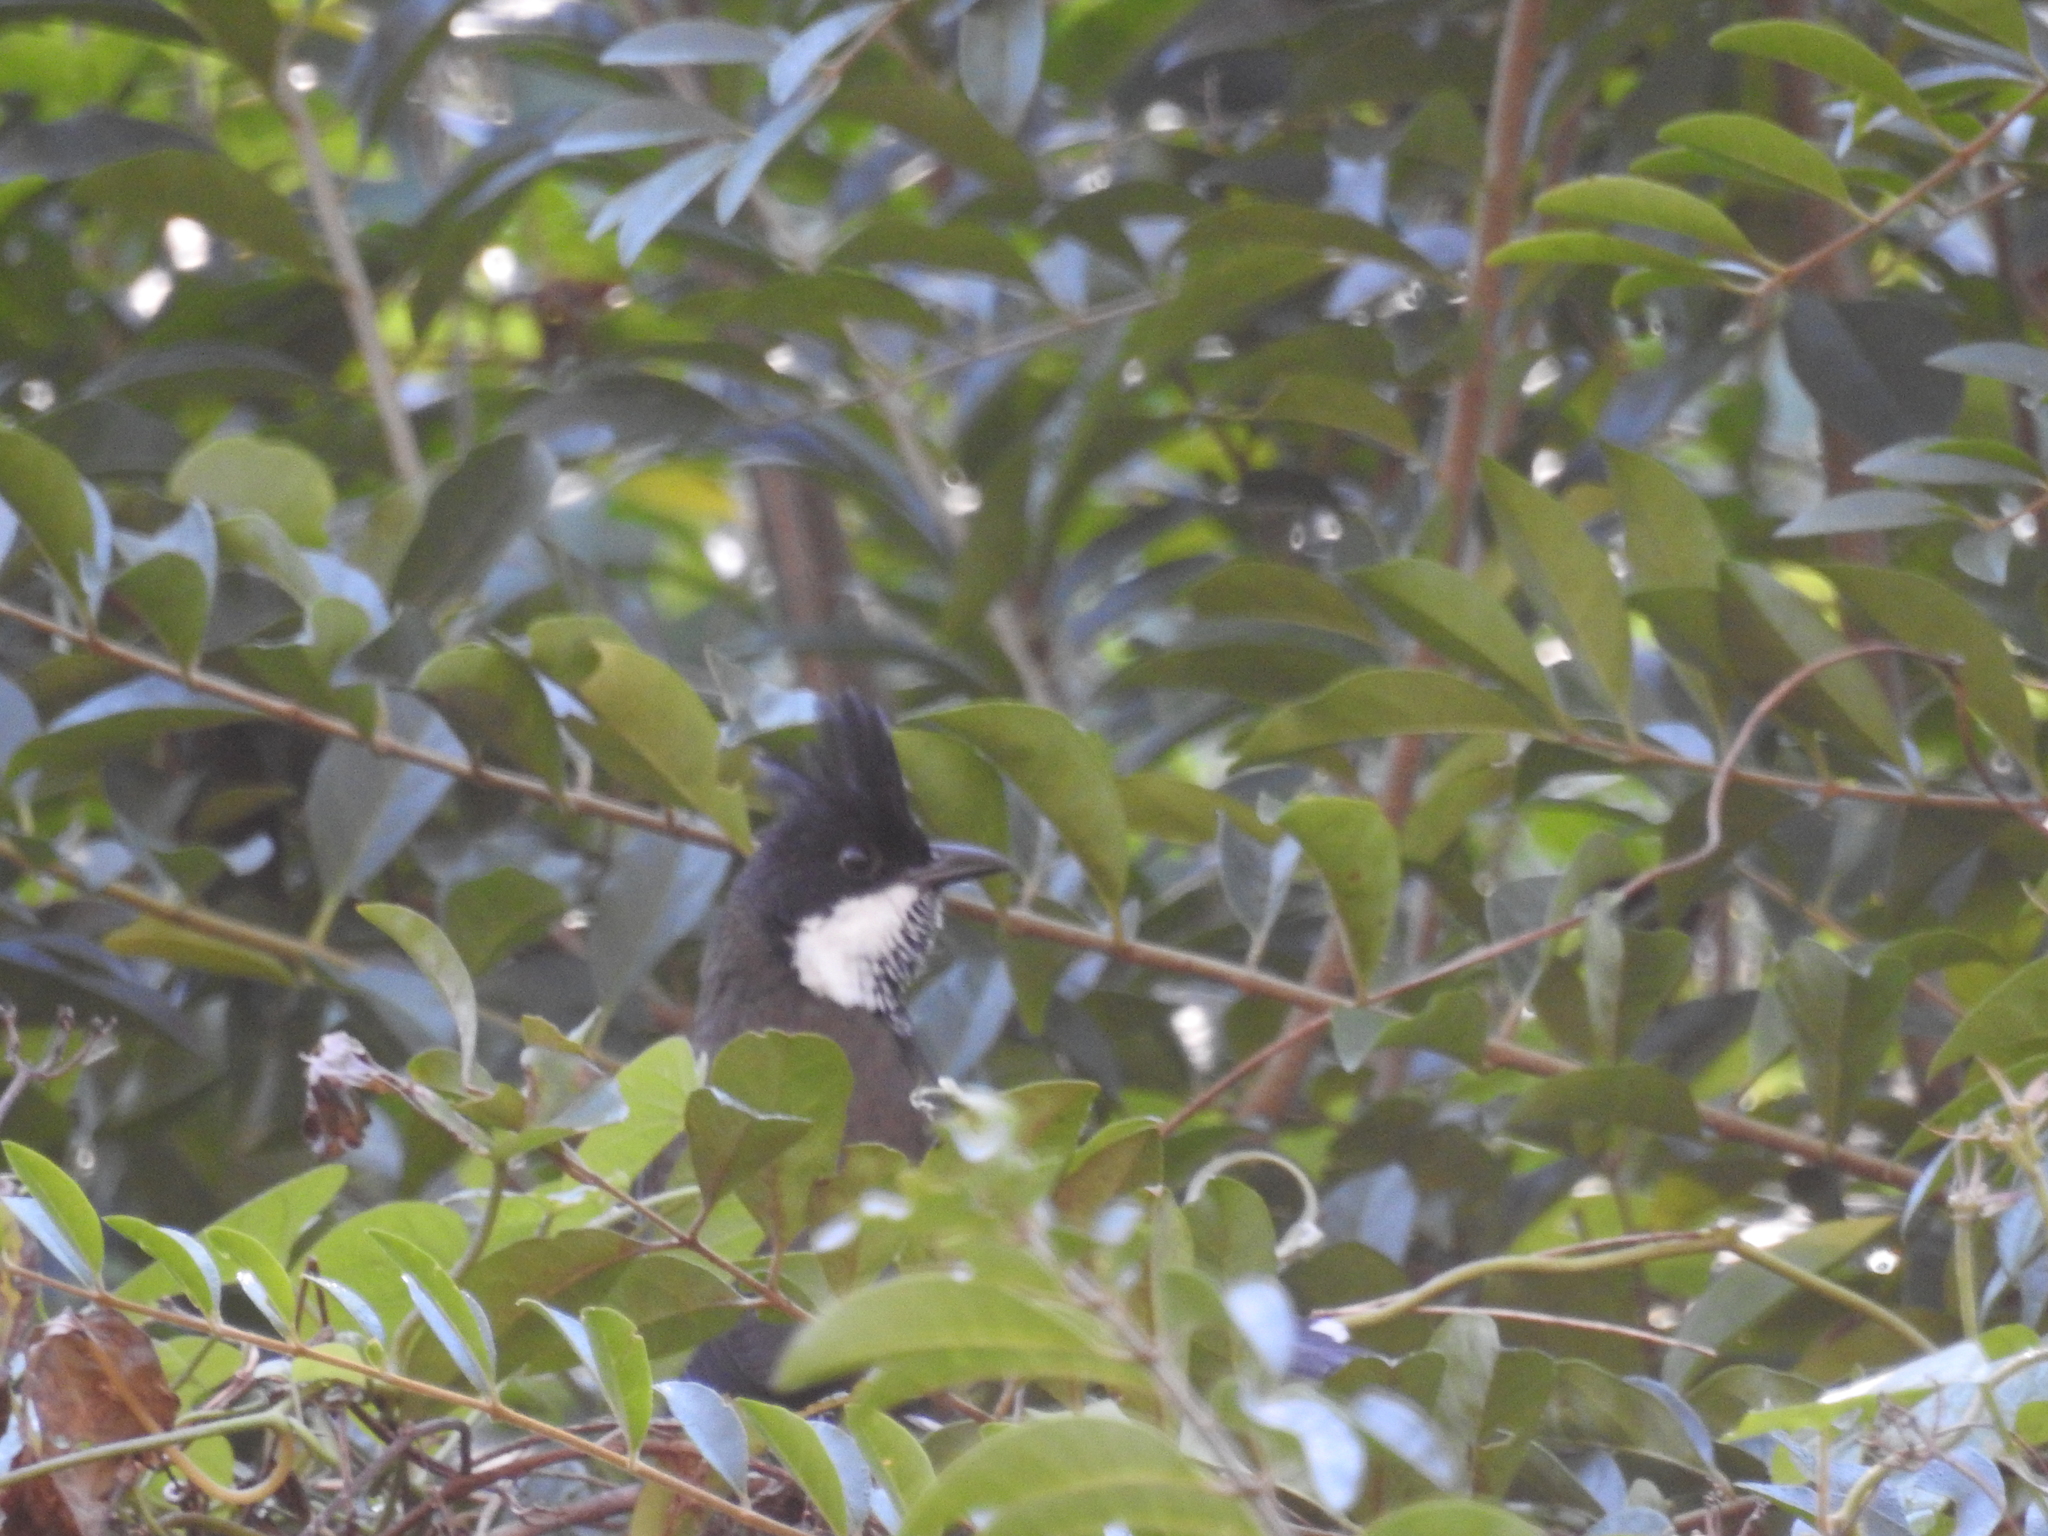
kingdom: Animalia
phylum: Chordata
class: Aves
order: Passeriformes
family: Psophodidae
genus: Psophodes
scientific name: Psophodes olivaceus
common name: Eastern whipbird
